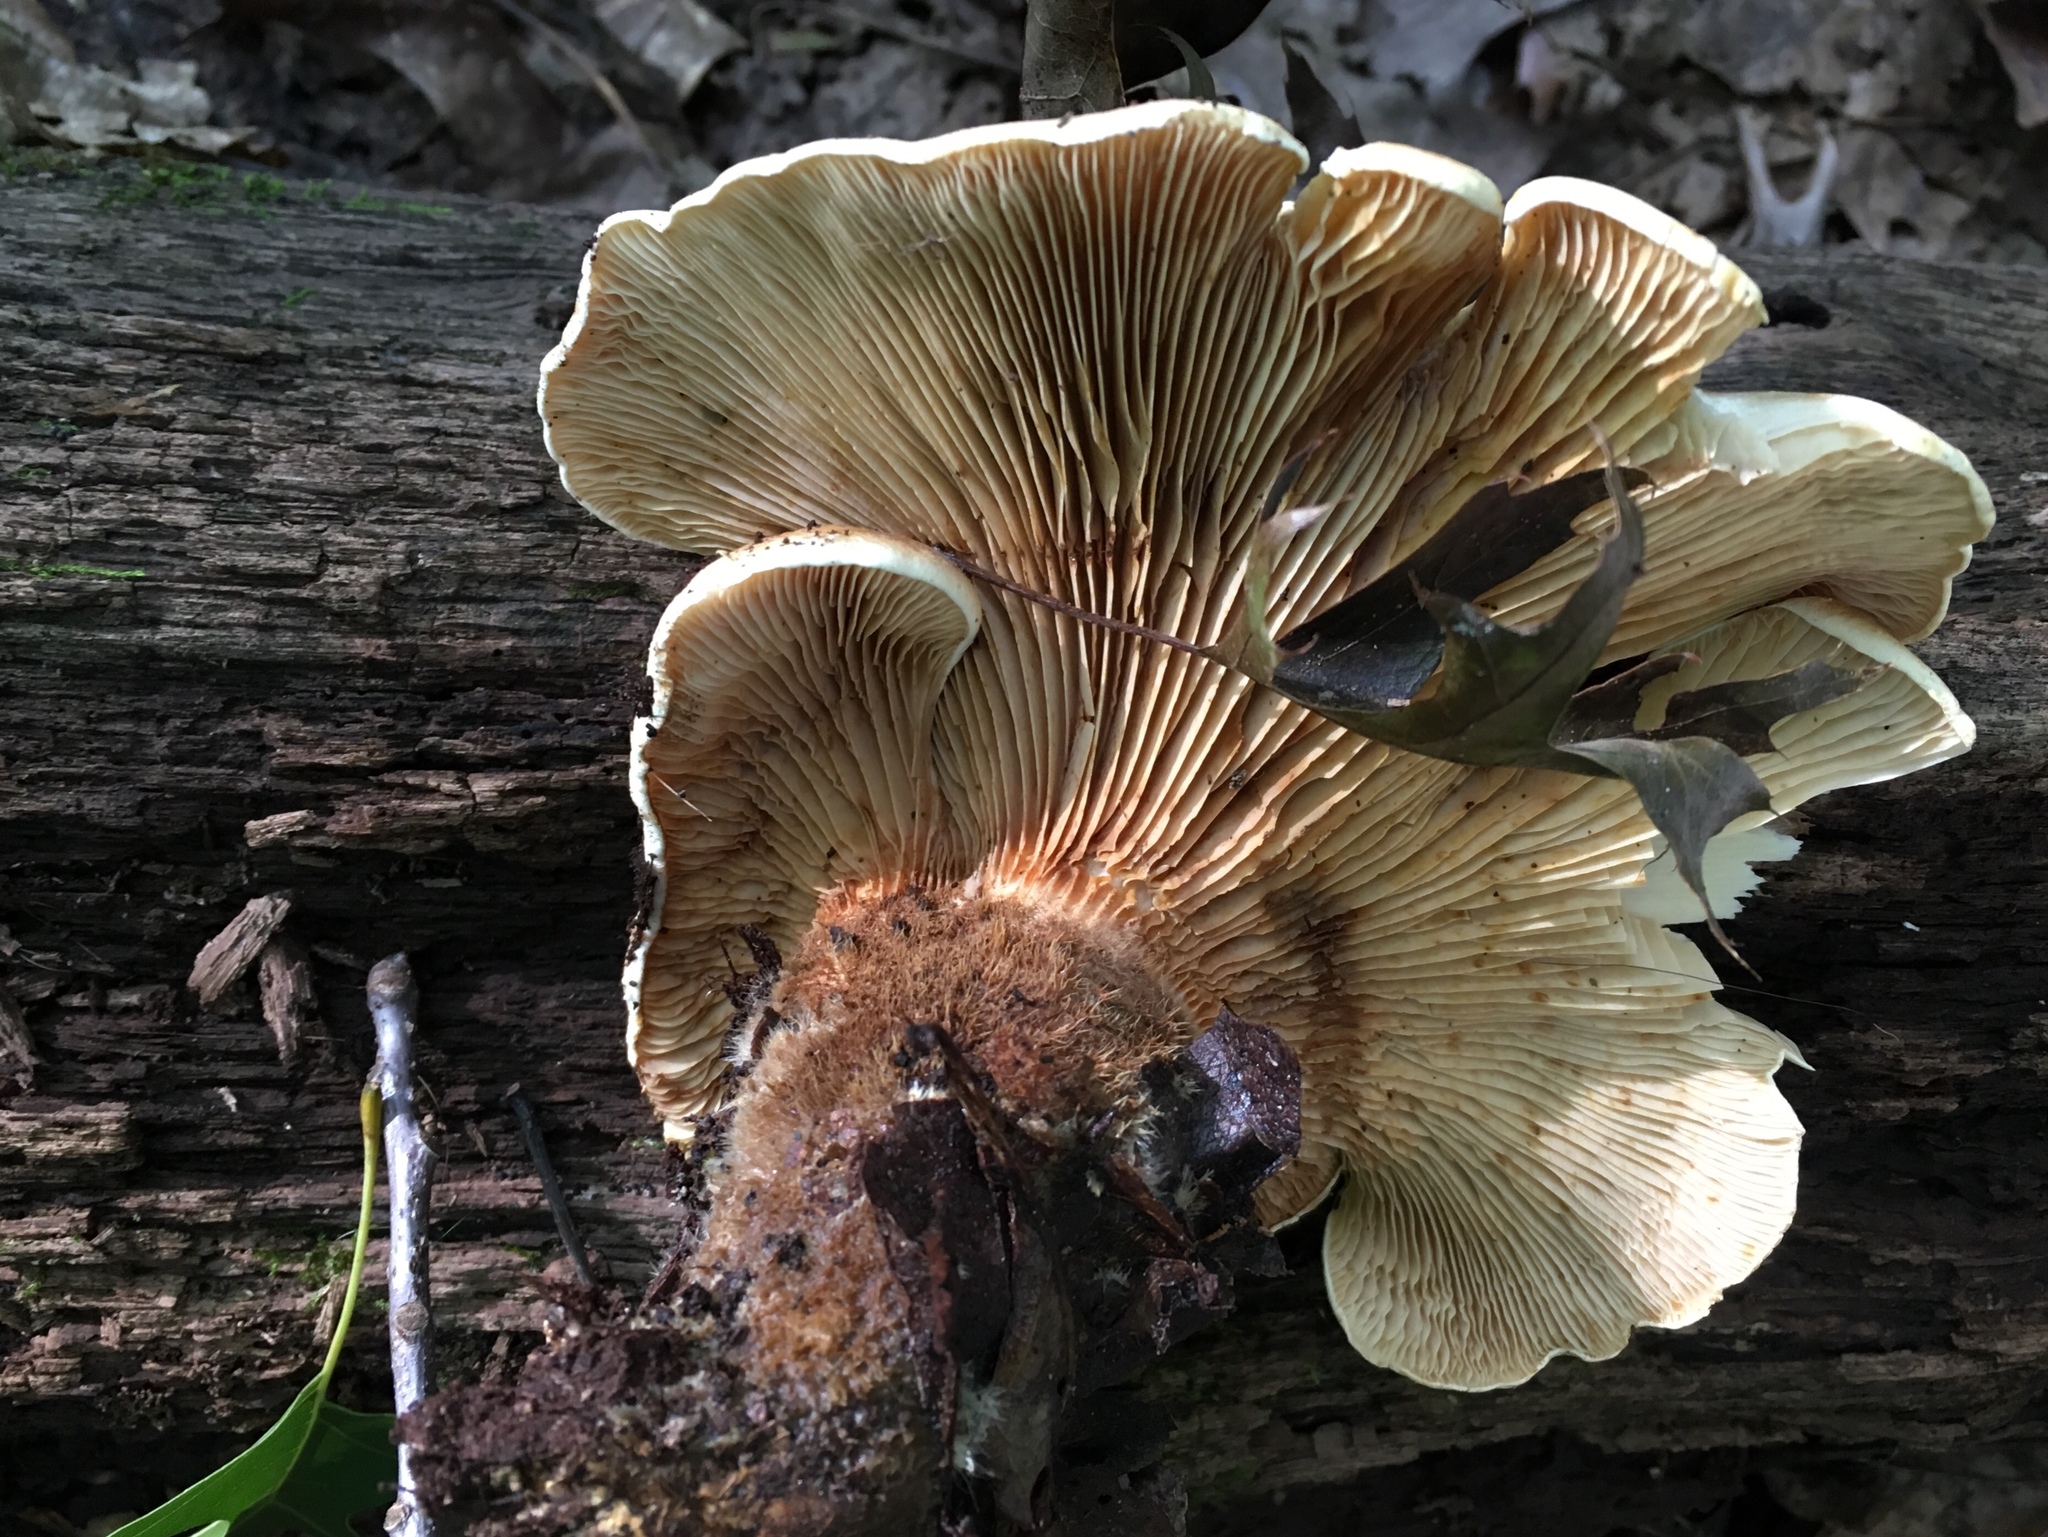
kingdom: Fungi
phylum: Basidiomycota
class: Agaricomycetes
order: Boletales
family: Tapinellaceae
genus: Tapinella
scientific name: Tapinella atrotomentosa
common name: Velvet rollrim
